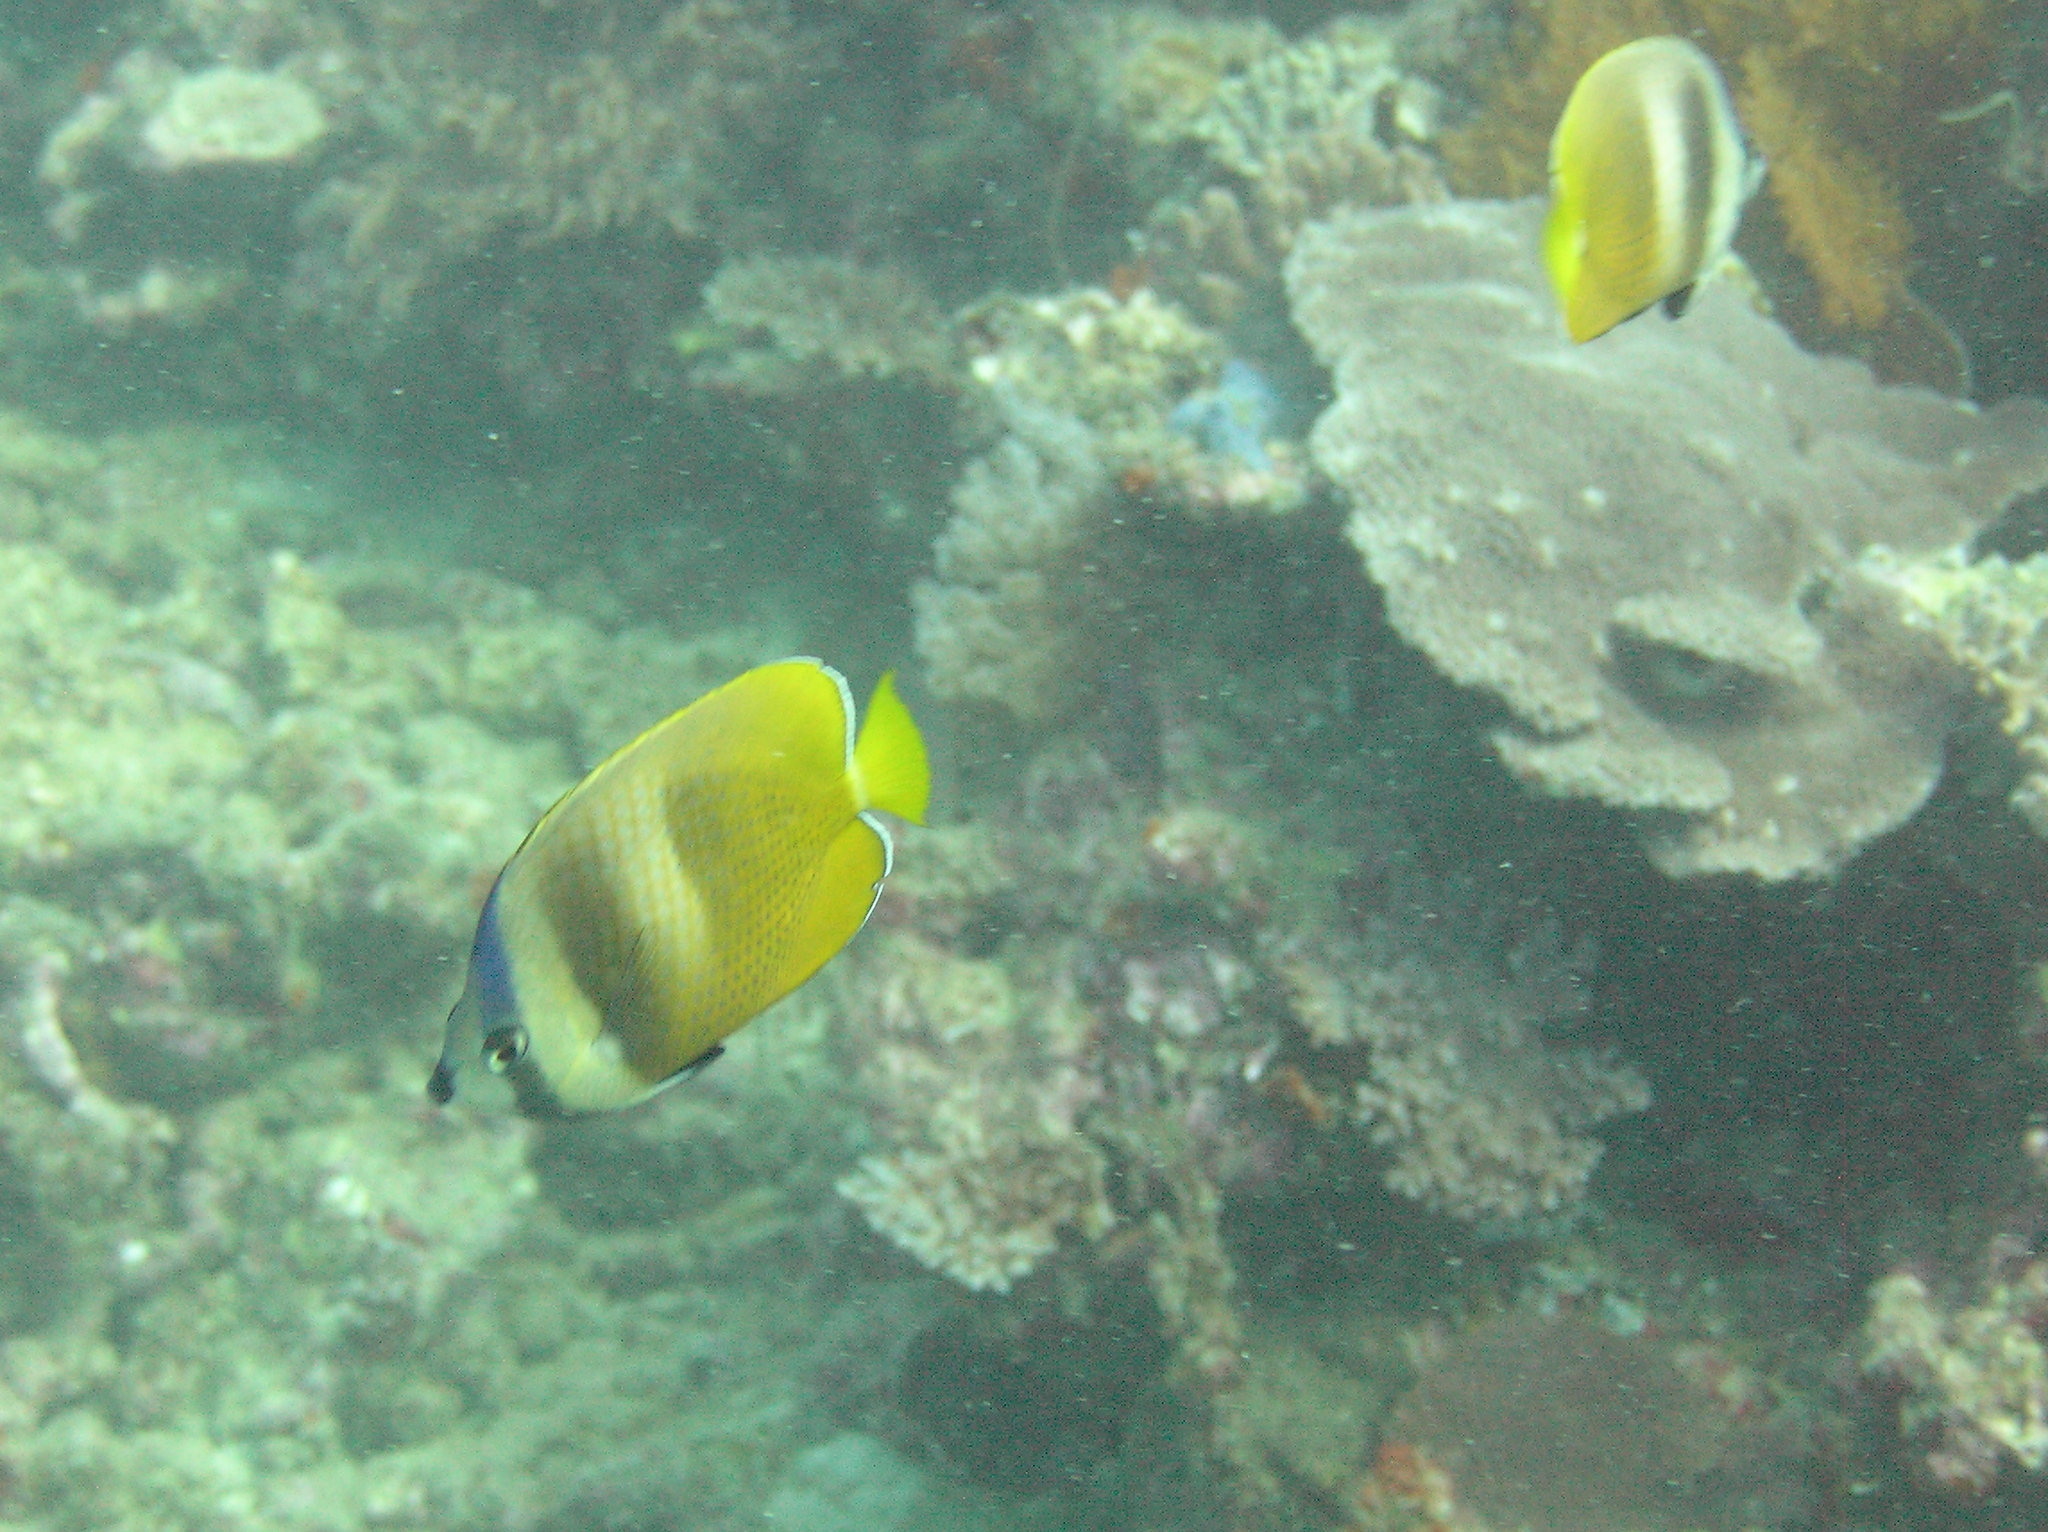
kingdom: Animalia
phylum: Chordata
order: Perciformes
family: Chaetodontidae
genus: Chaetodon
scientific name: Chaetodon kleinii
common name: Klein's butterflyfish
